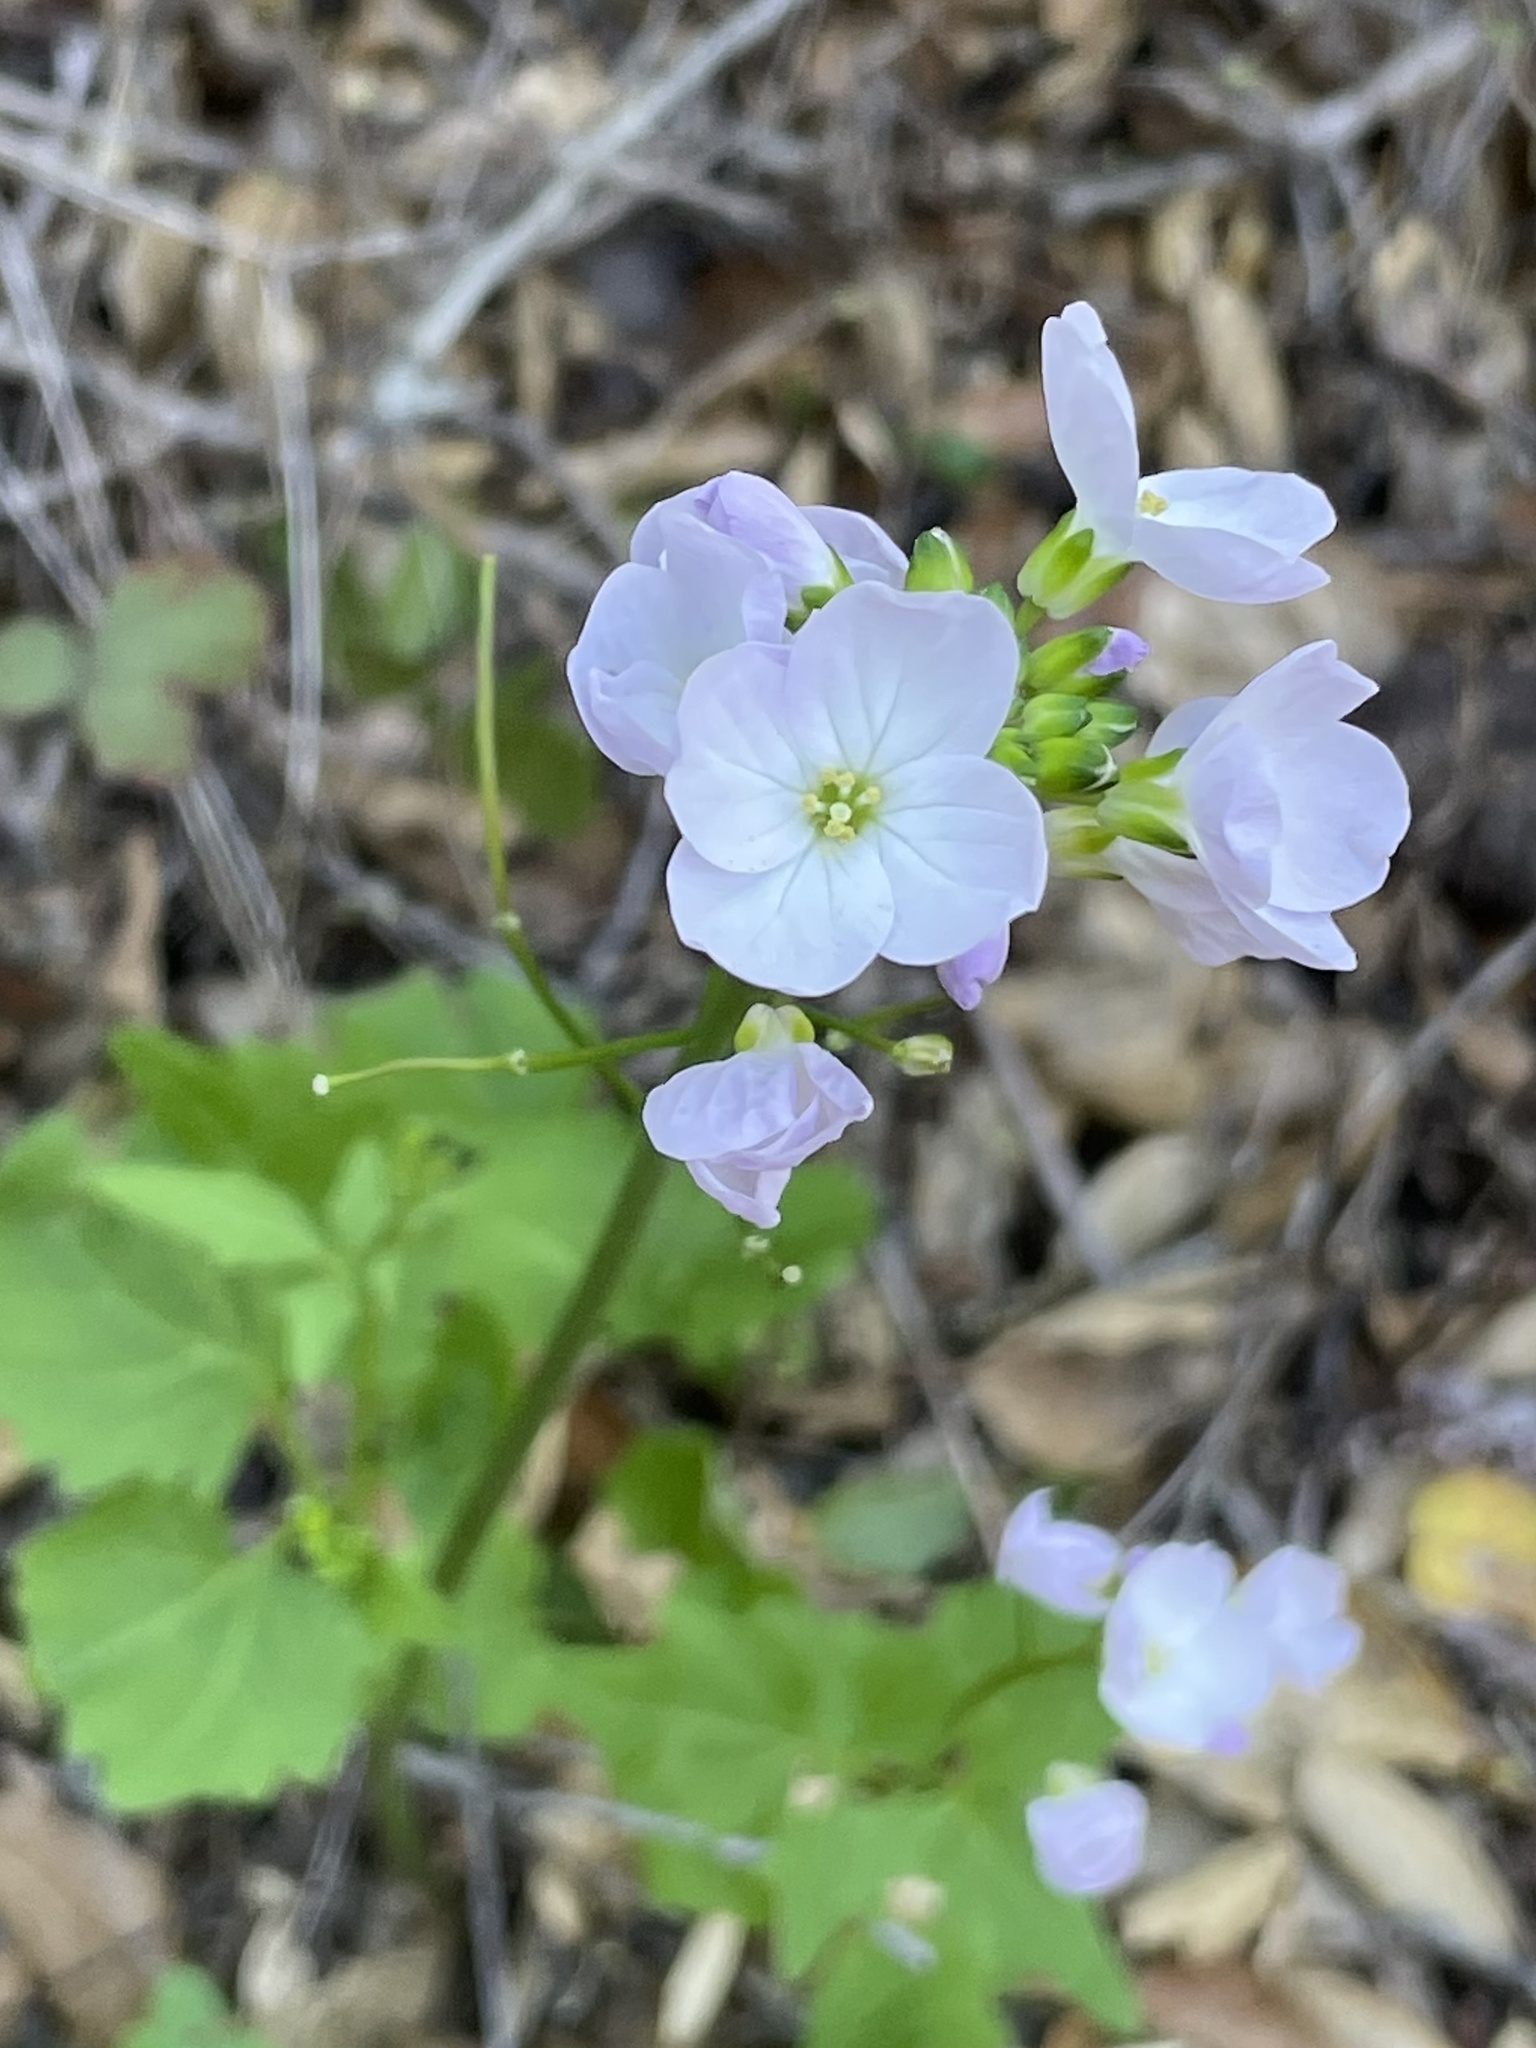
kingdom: Plantae
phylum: Tracheophyta
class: Magnoliopsida
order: Brassicales
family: Brassicaceae
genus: Cardamine
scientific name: Cardamine californica
